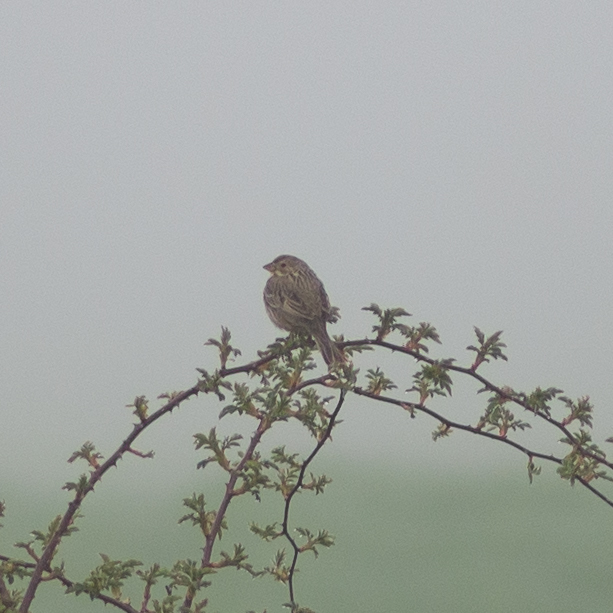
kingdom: Animalia
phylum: Chordata
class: Aves
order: Passeriformes
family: Emberizidae
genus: Emberiza
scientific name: Emberiza calandra
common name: Corn bunting
